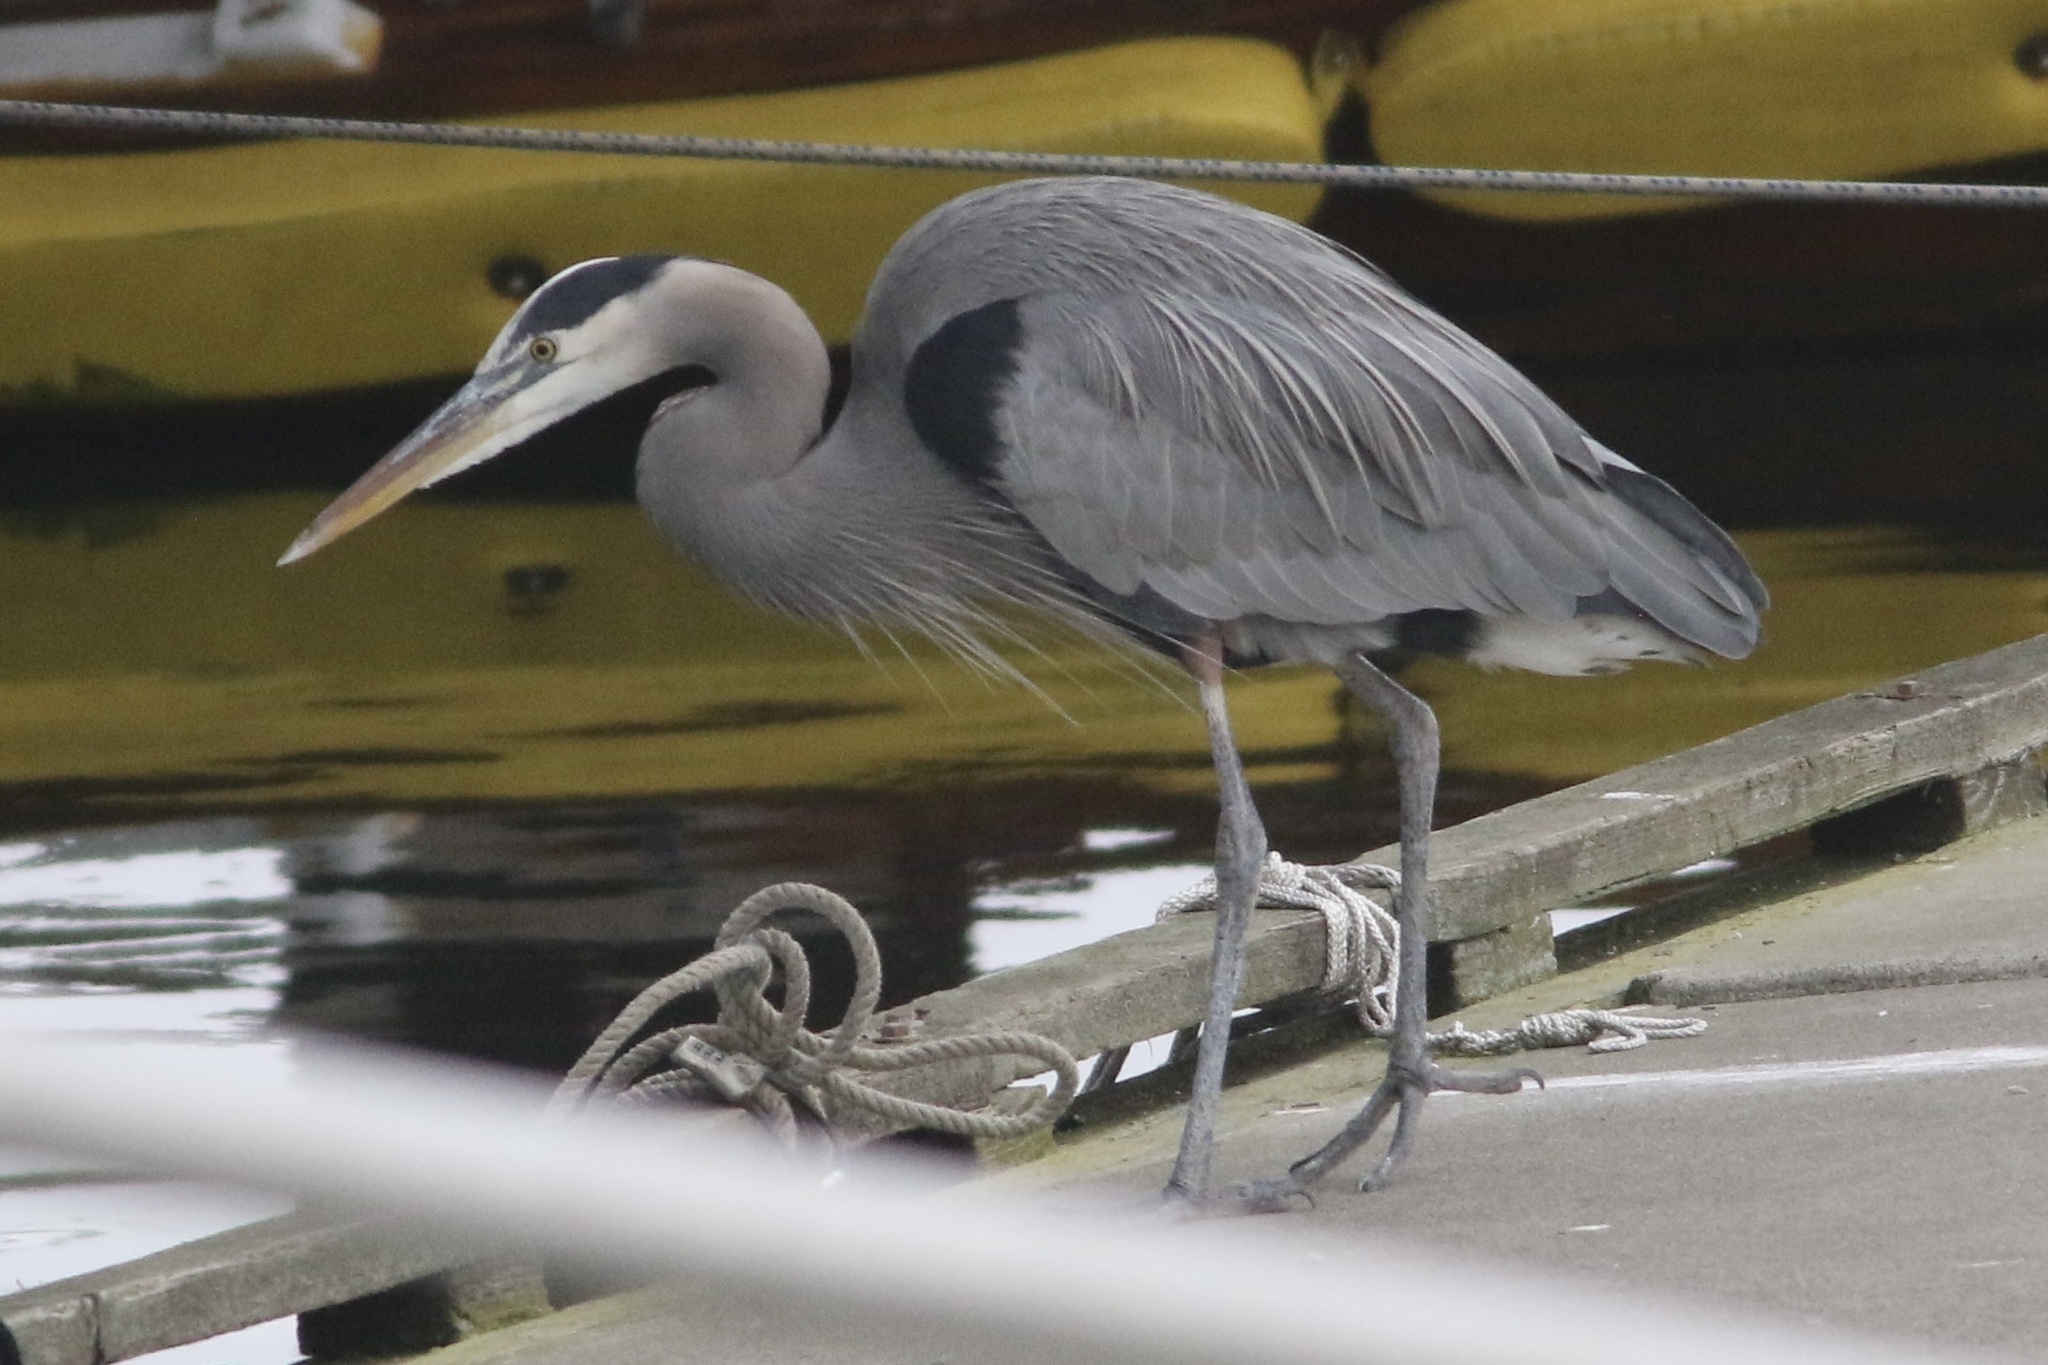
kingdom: Animalia
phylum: Chordata
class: Aves
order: Pelecaniformes
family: Ardeidae
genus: Ardea
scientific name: Ardea herodias
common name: Great blue heron
